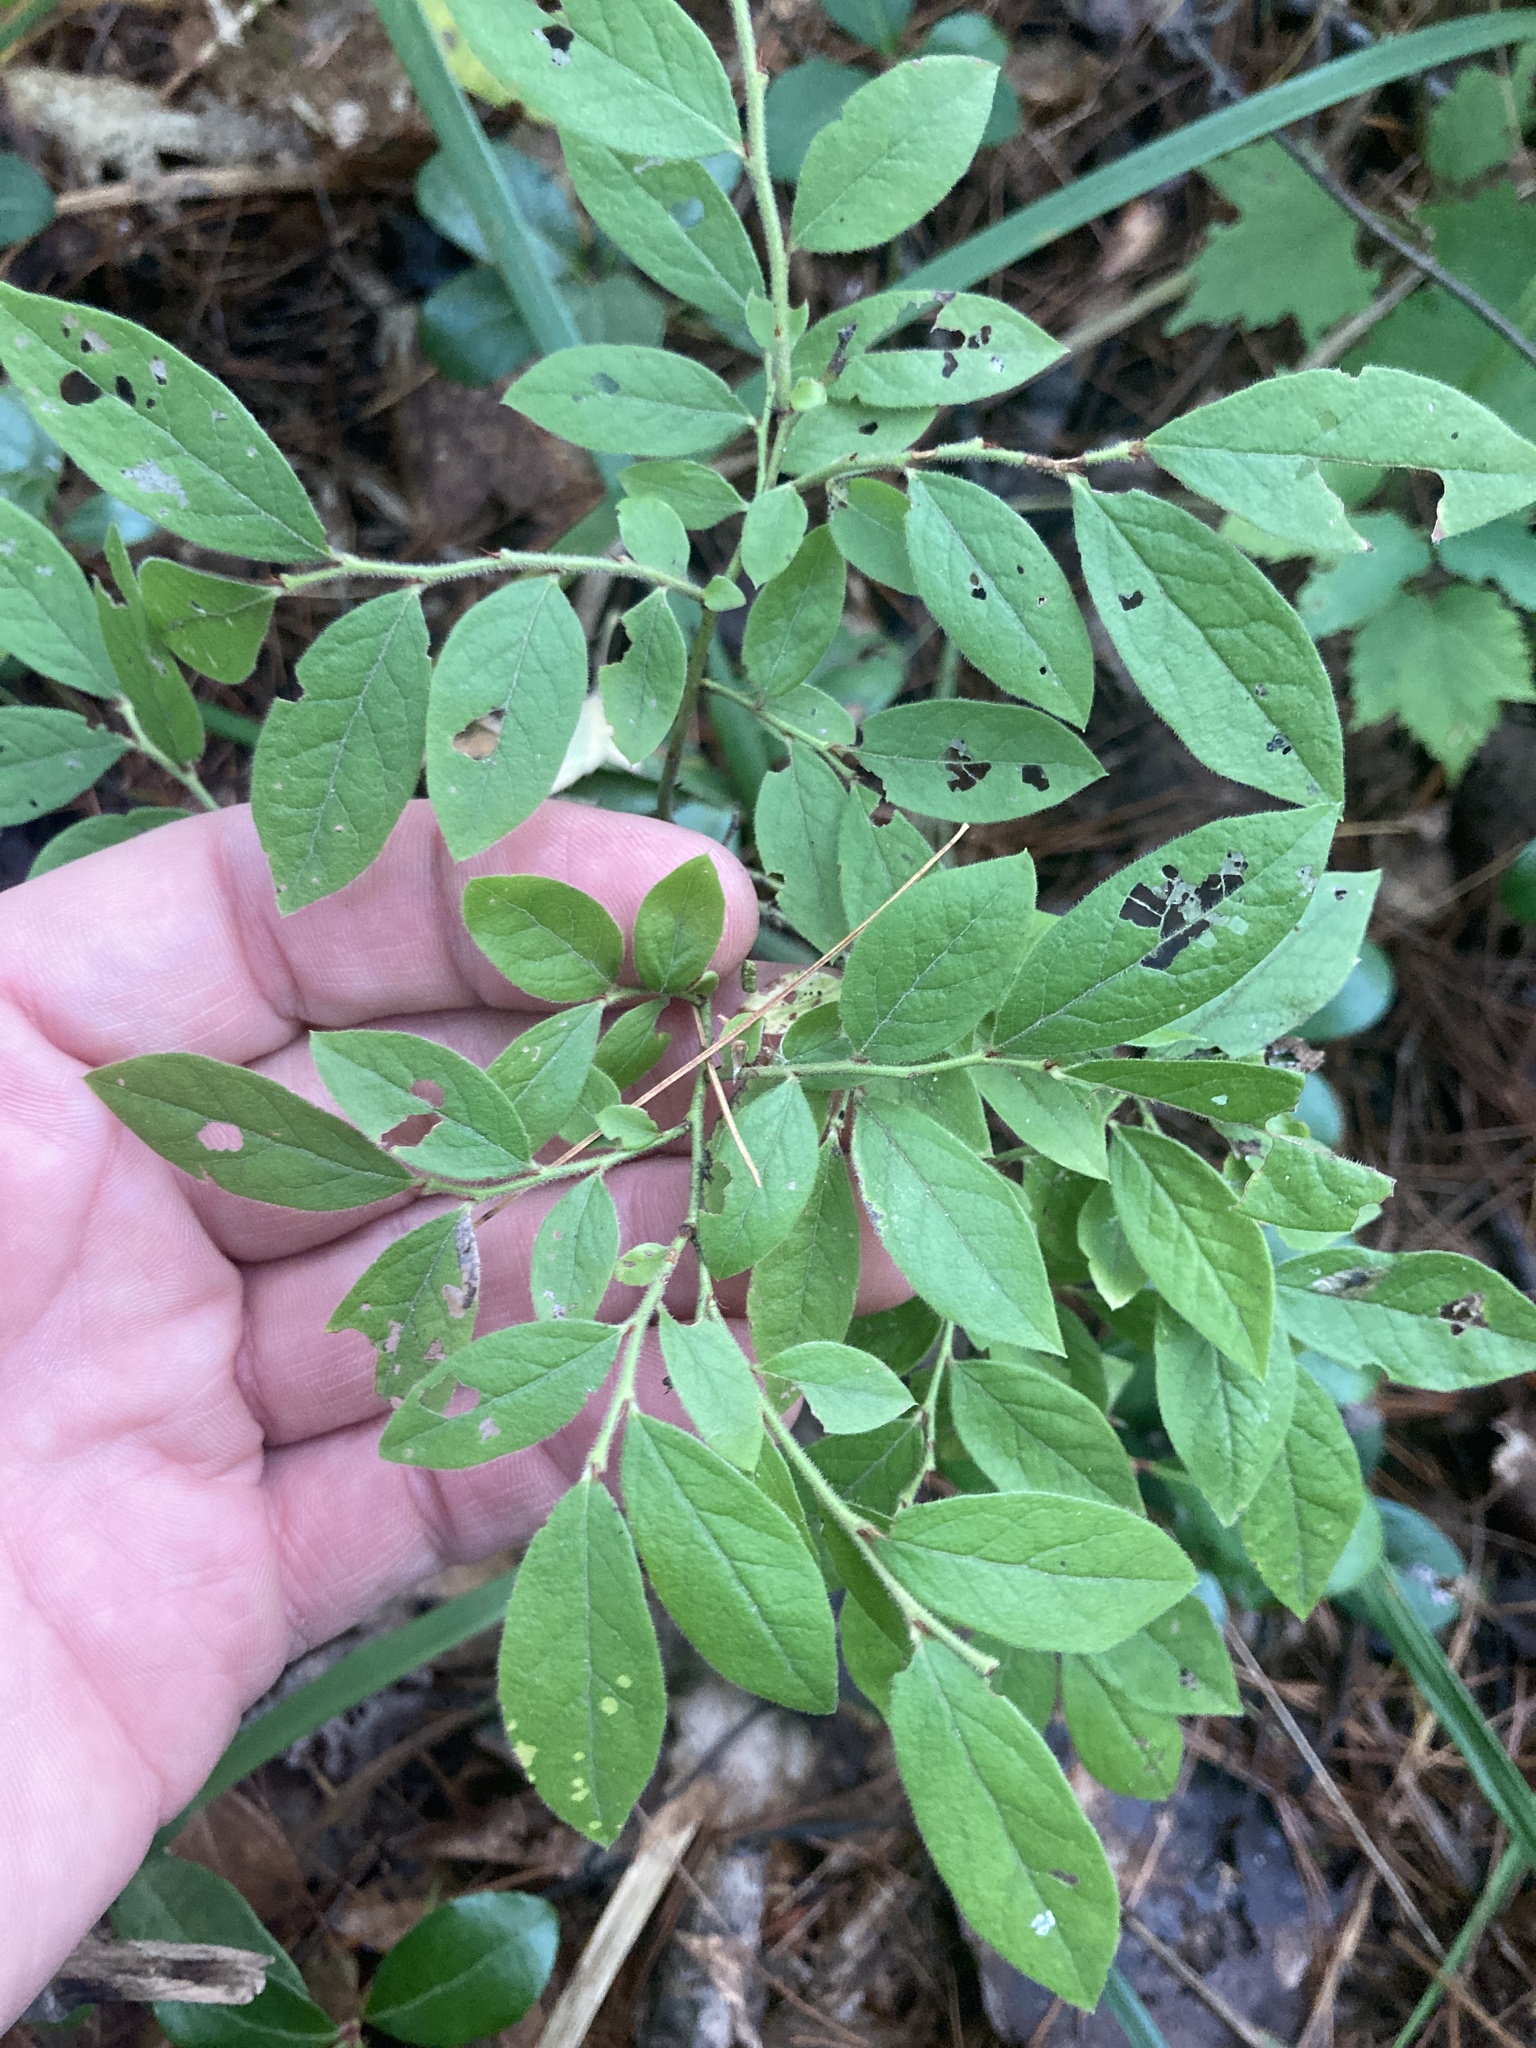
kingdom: Plantae
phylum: Tracheophyta
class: Magnoliopsida
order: Ericales
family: Ericaceae
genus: Vaccinium
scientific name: Vaccinium myrtilloides
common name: Canada blueberry
